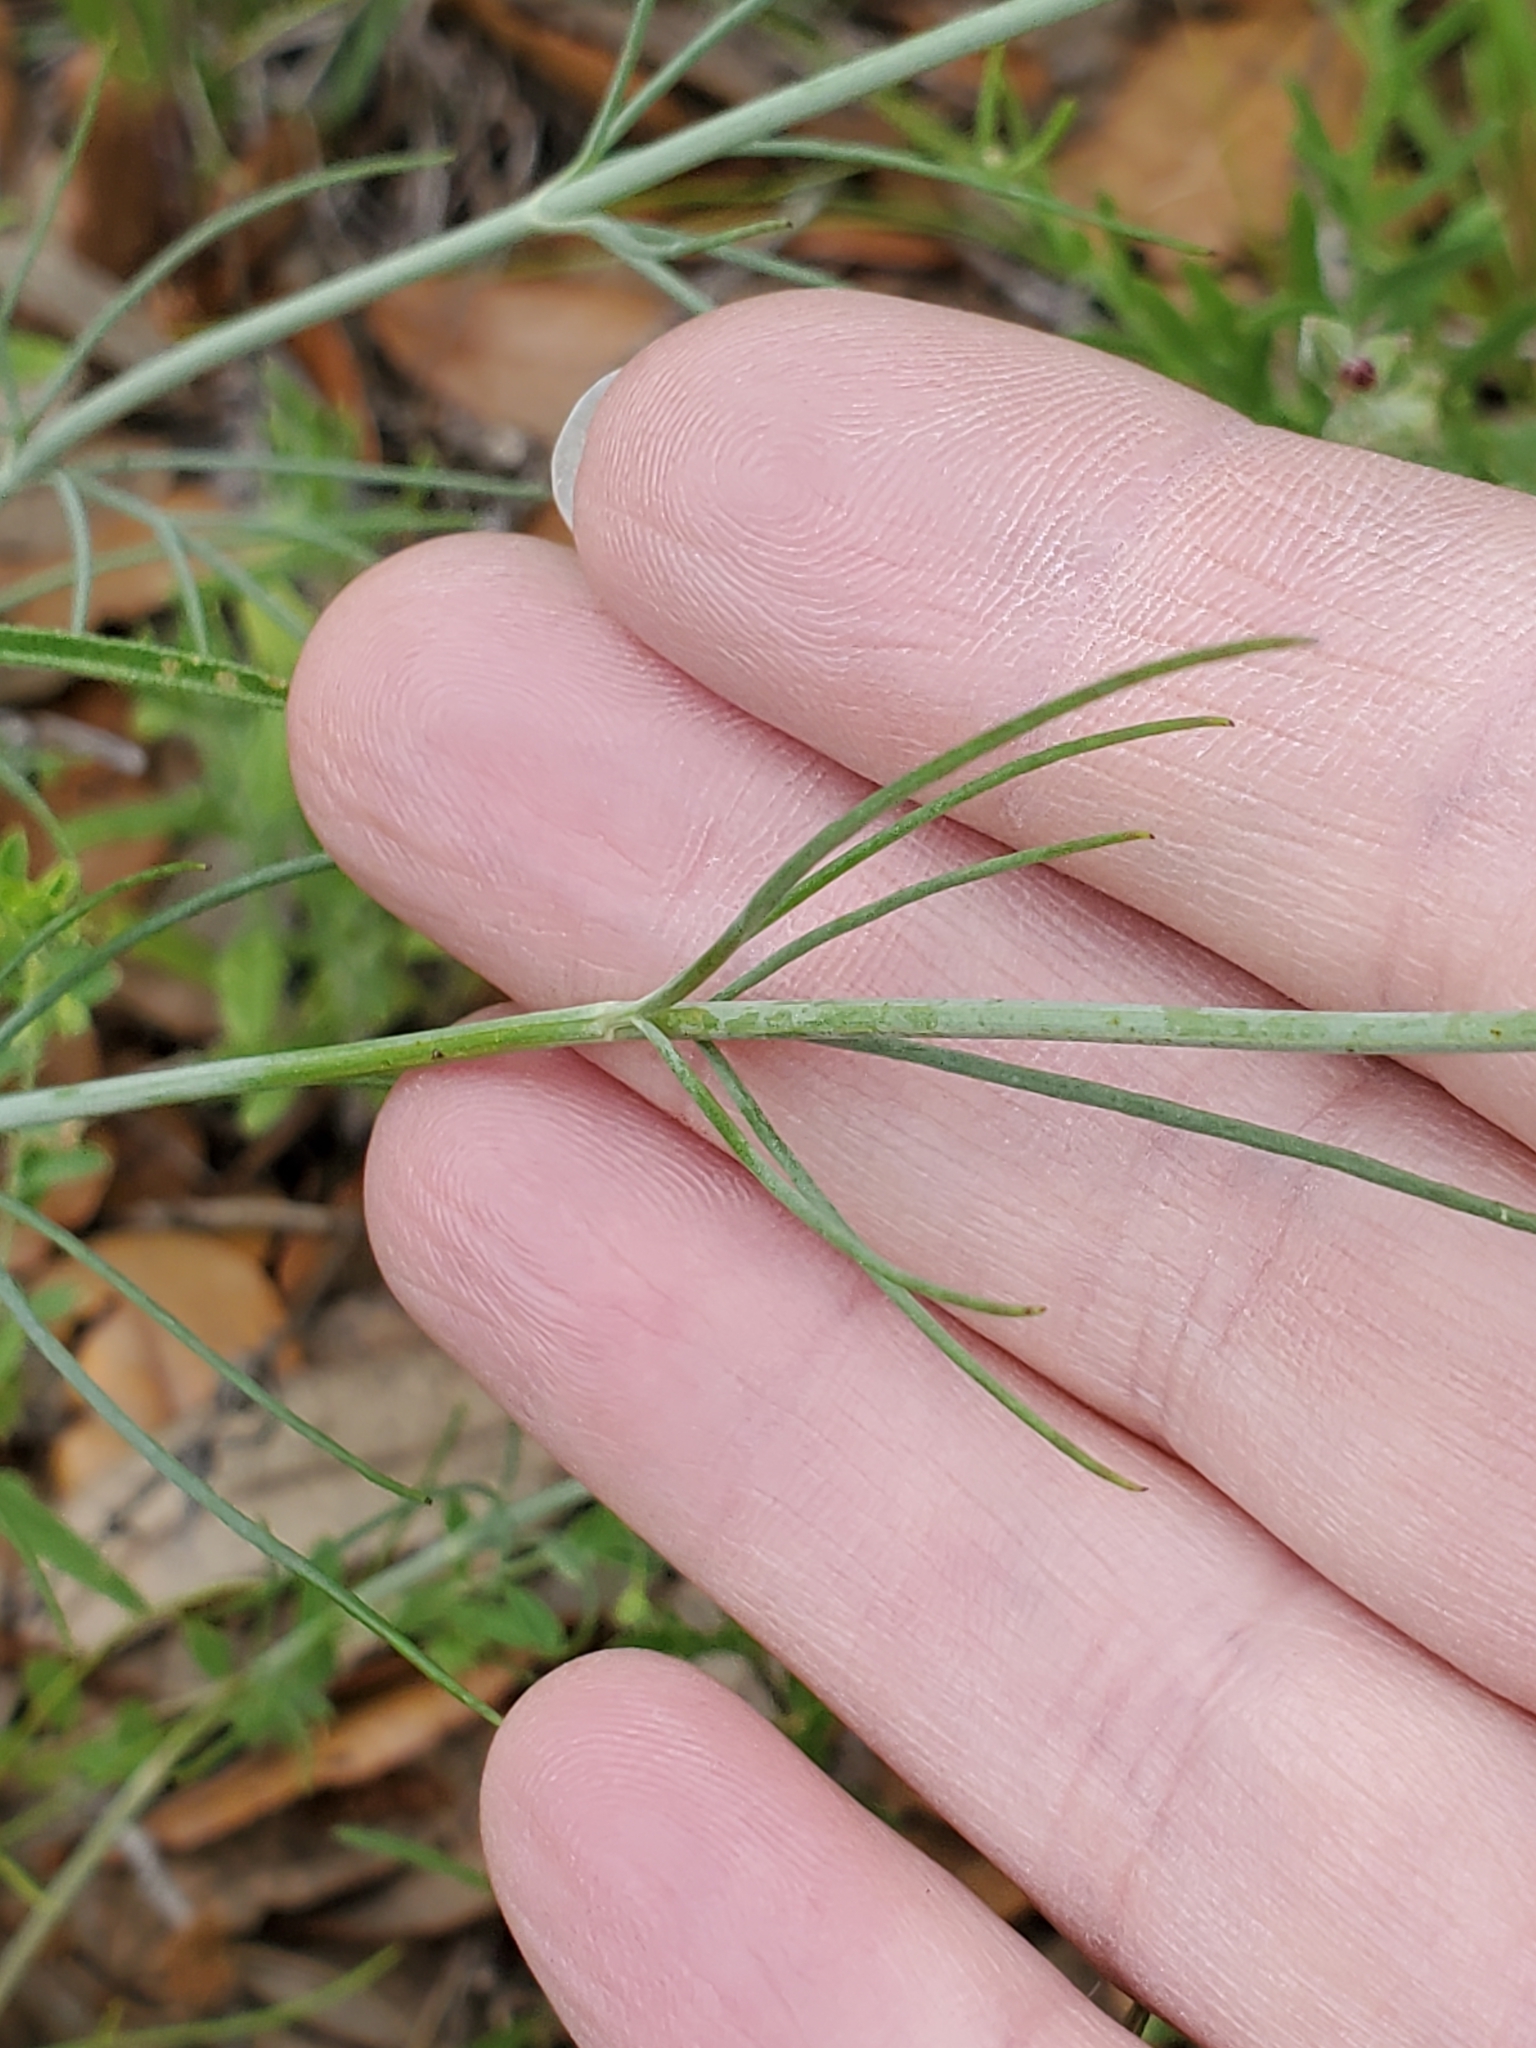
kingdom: Plantae
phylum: Tracheophyta
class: Magnoliopsida
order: Asterales
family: Asteraceae
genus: Thelesperma
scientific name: Thelesperma simplicifolium
